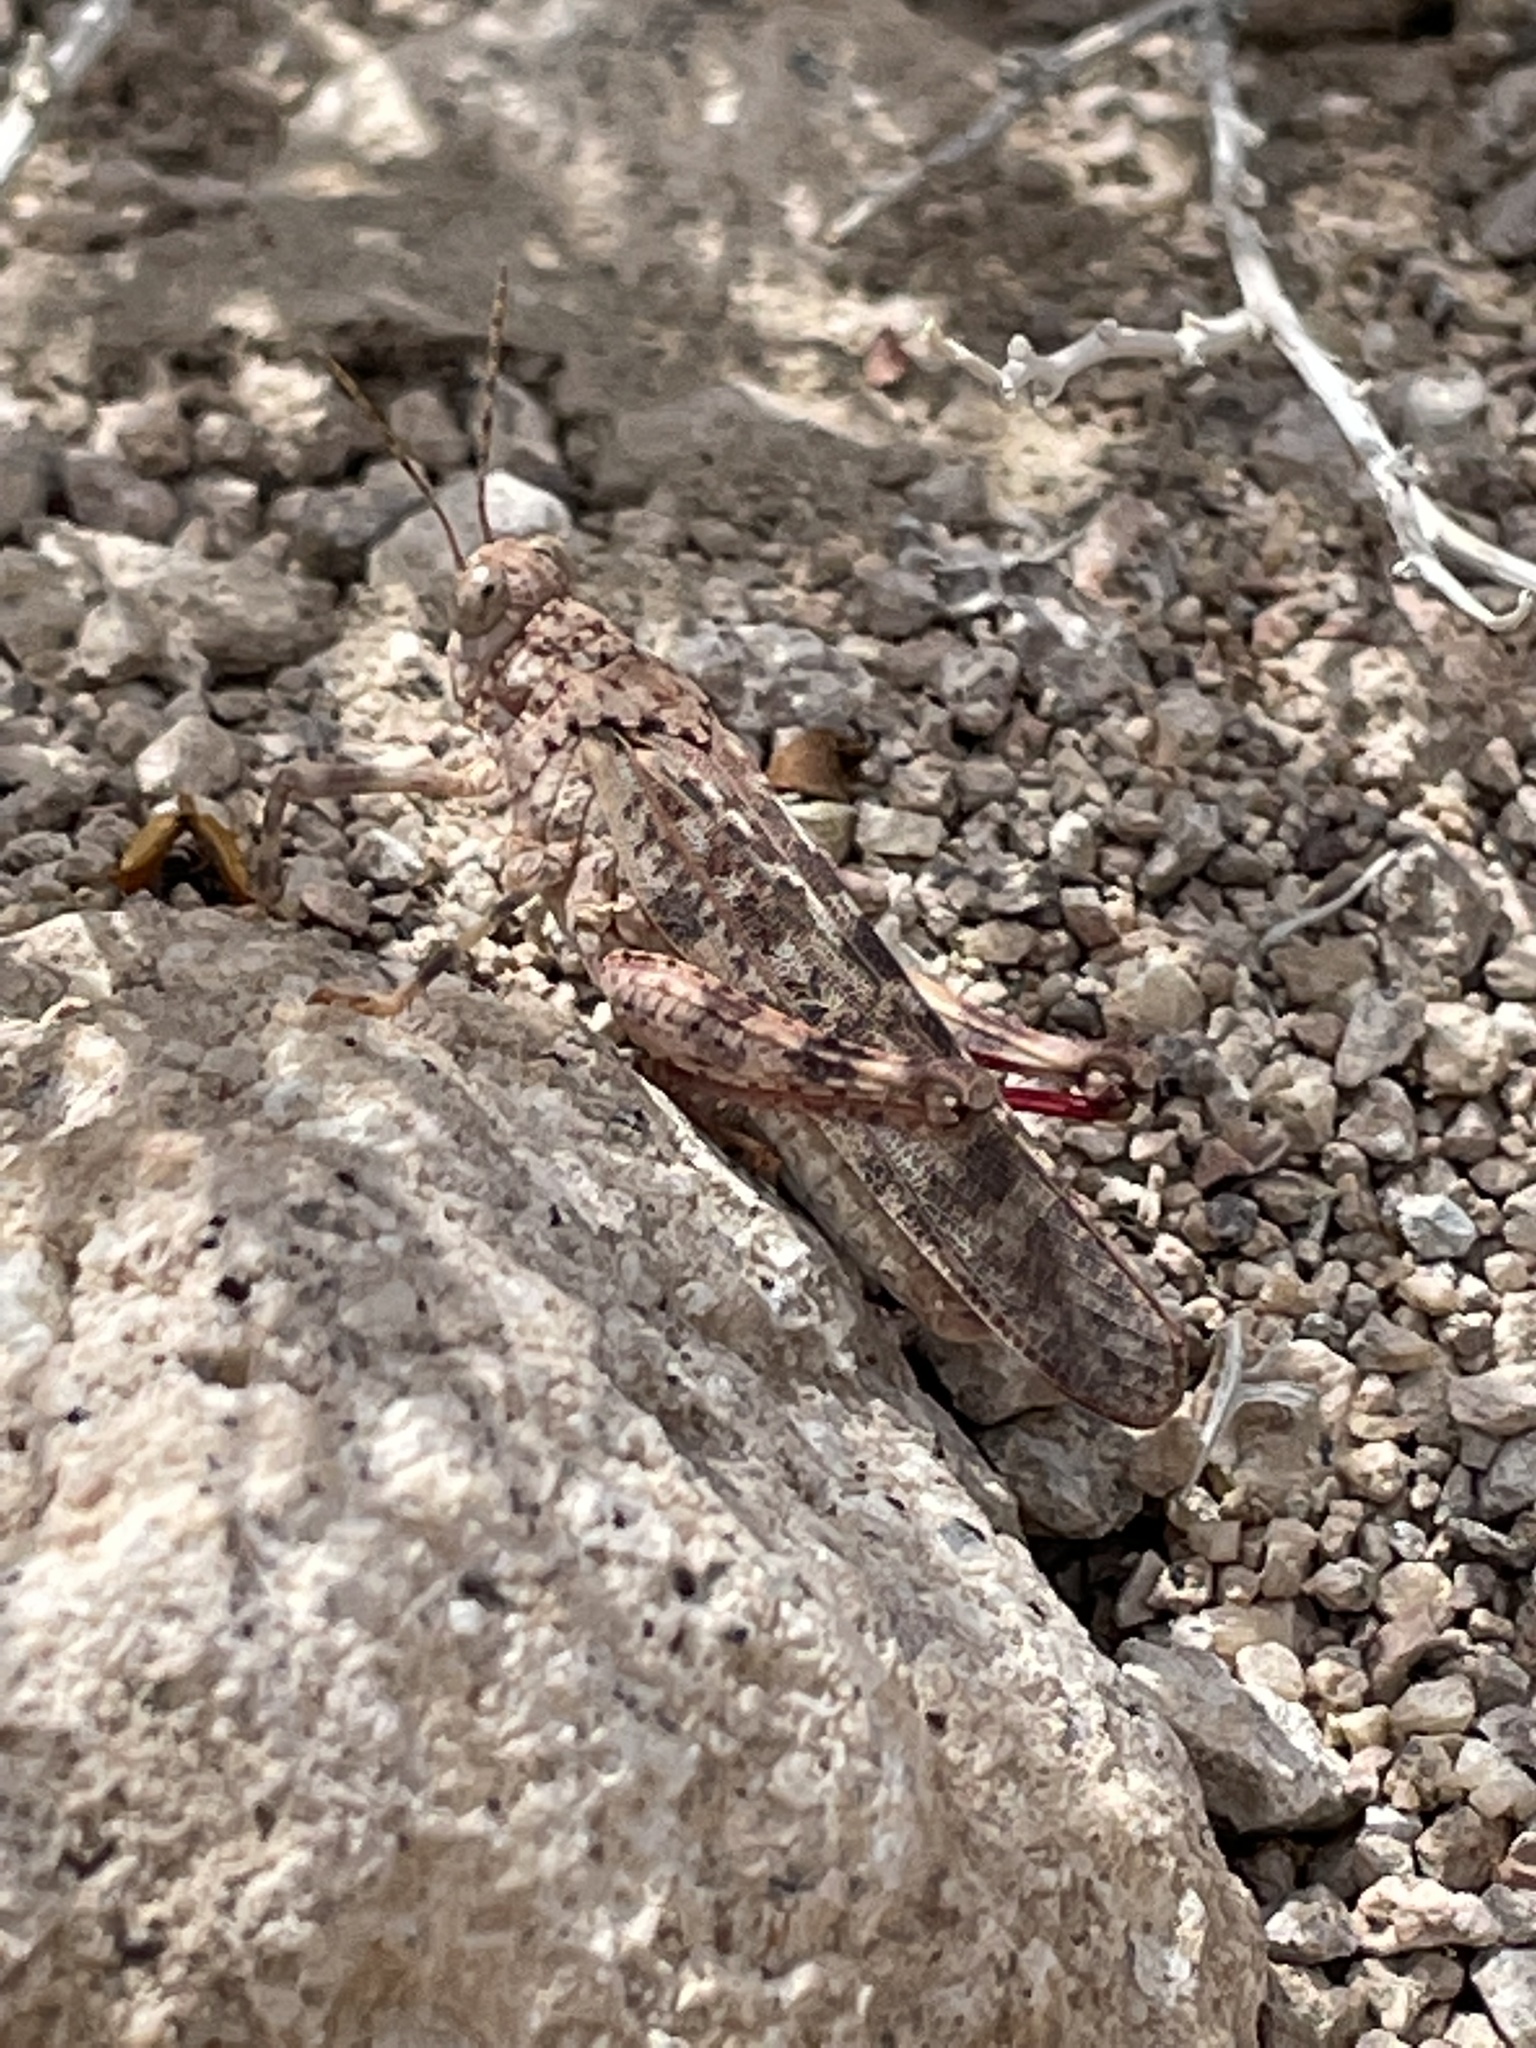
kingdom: Animalia
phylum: Arthropoda
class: Insecta
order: Orthoptera
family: Romaleidae
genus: Tytthotyle
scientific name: Tytthotyle maculata
